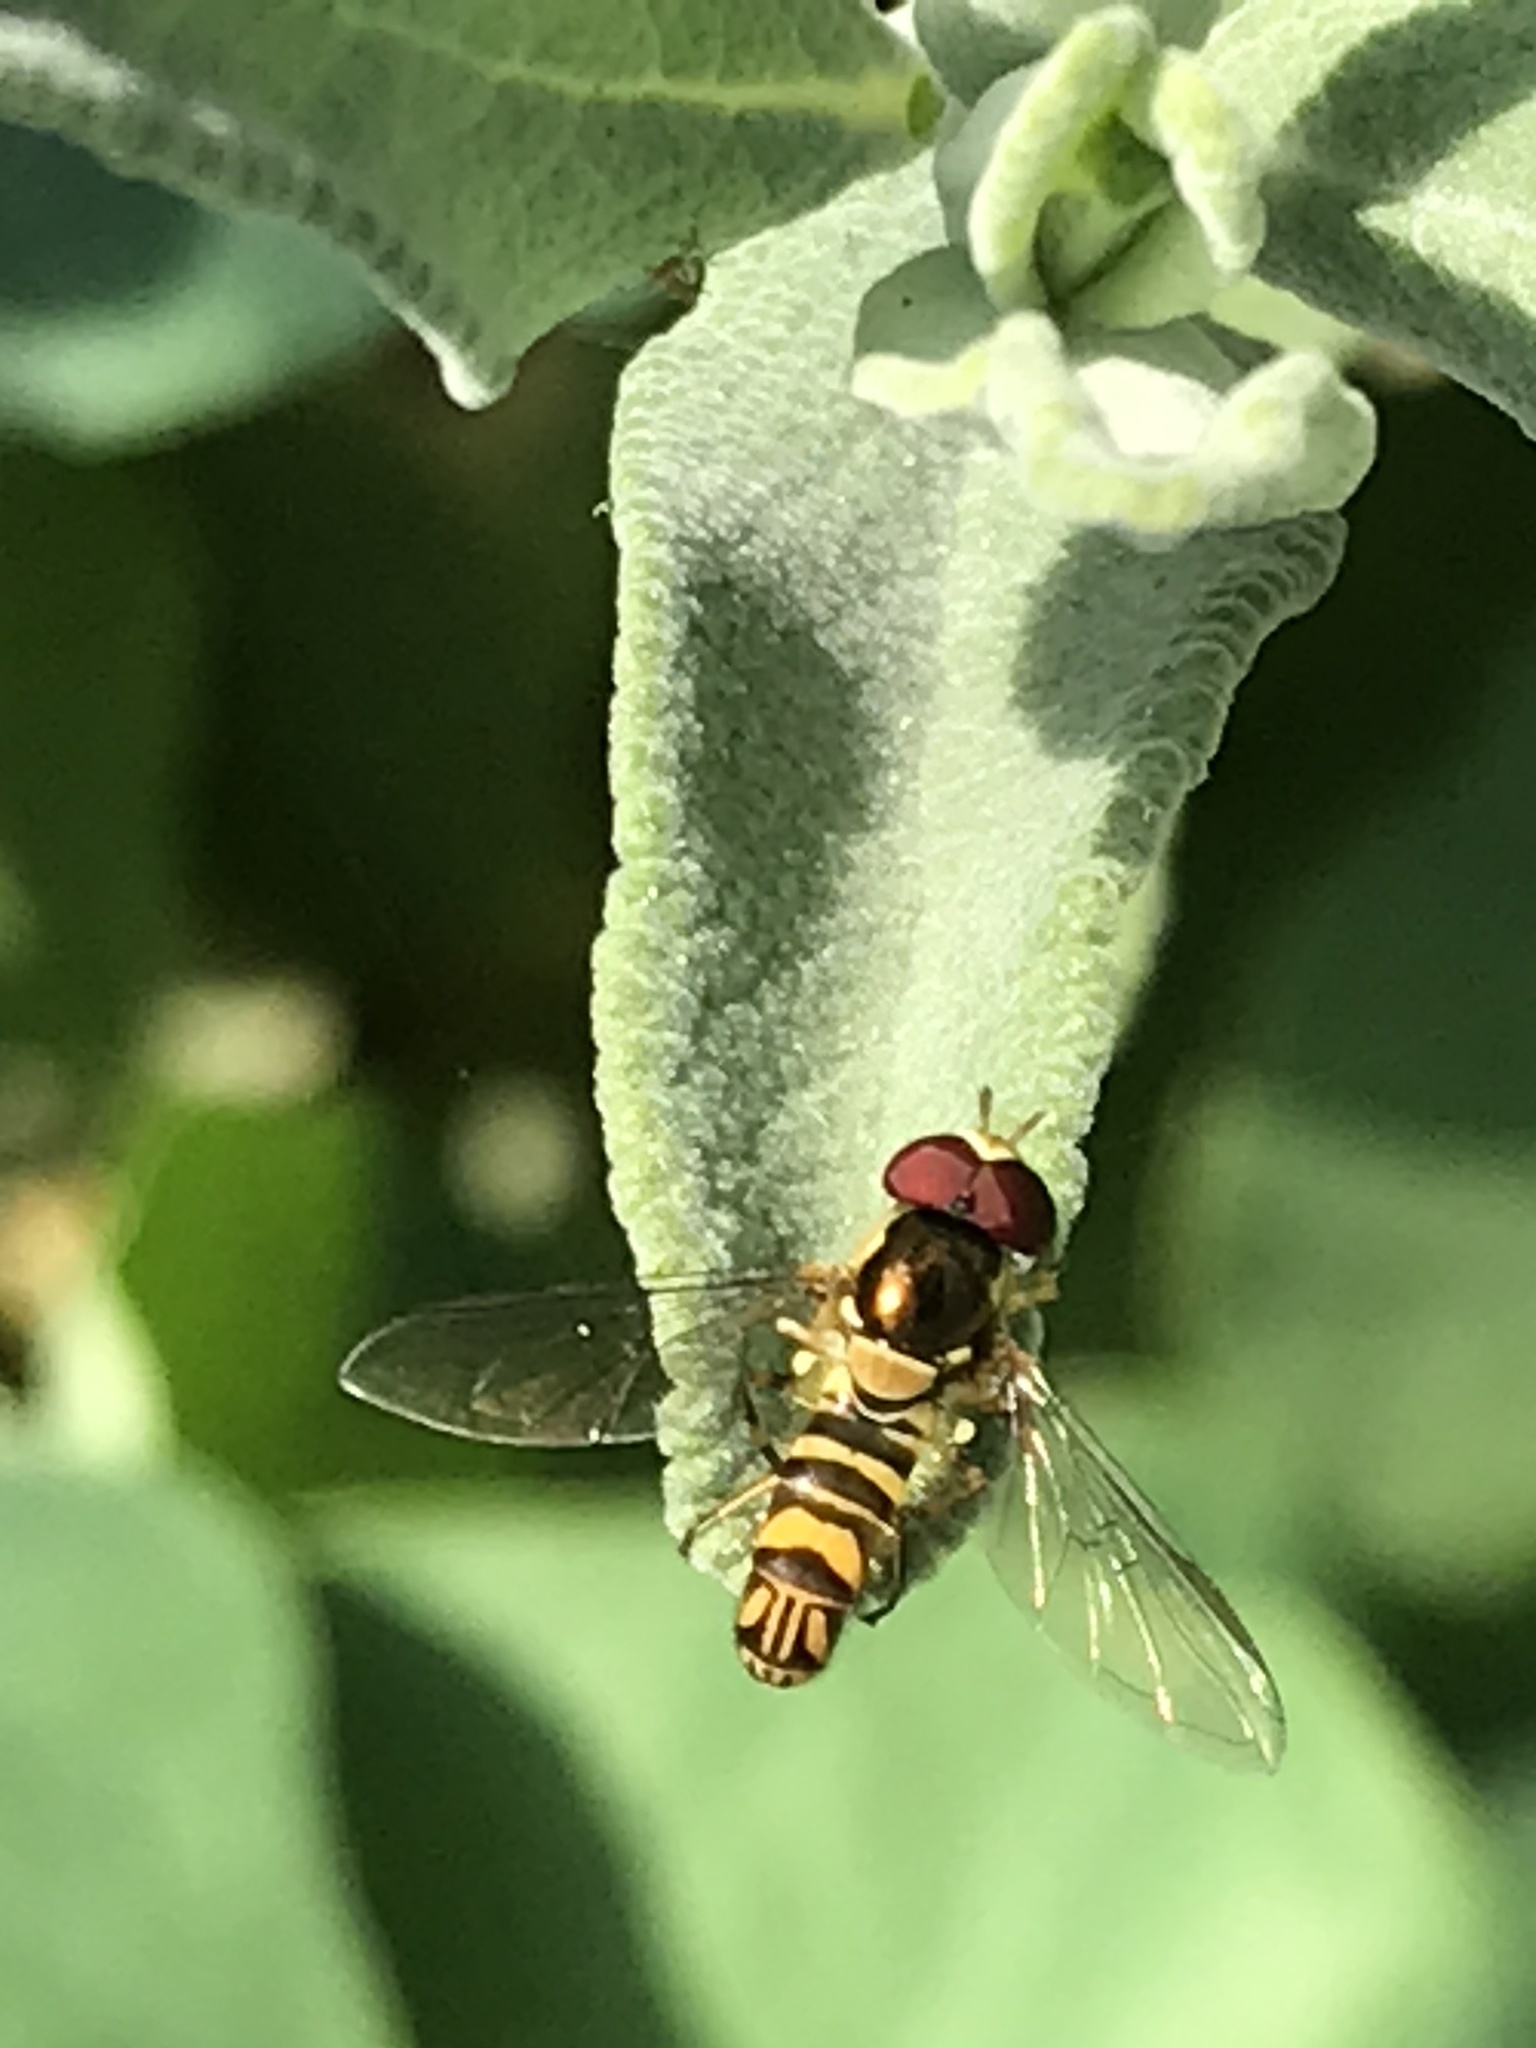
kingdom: Animalia
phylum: Arthropoda
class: Insecta
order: Diptera
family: Syrphidae
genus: Allograpta
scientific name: Allograpta obliqua
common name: Common oblique syrphid
